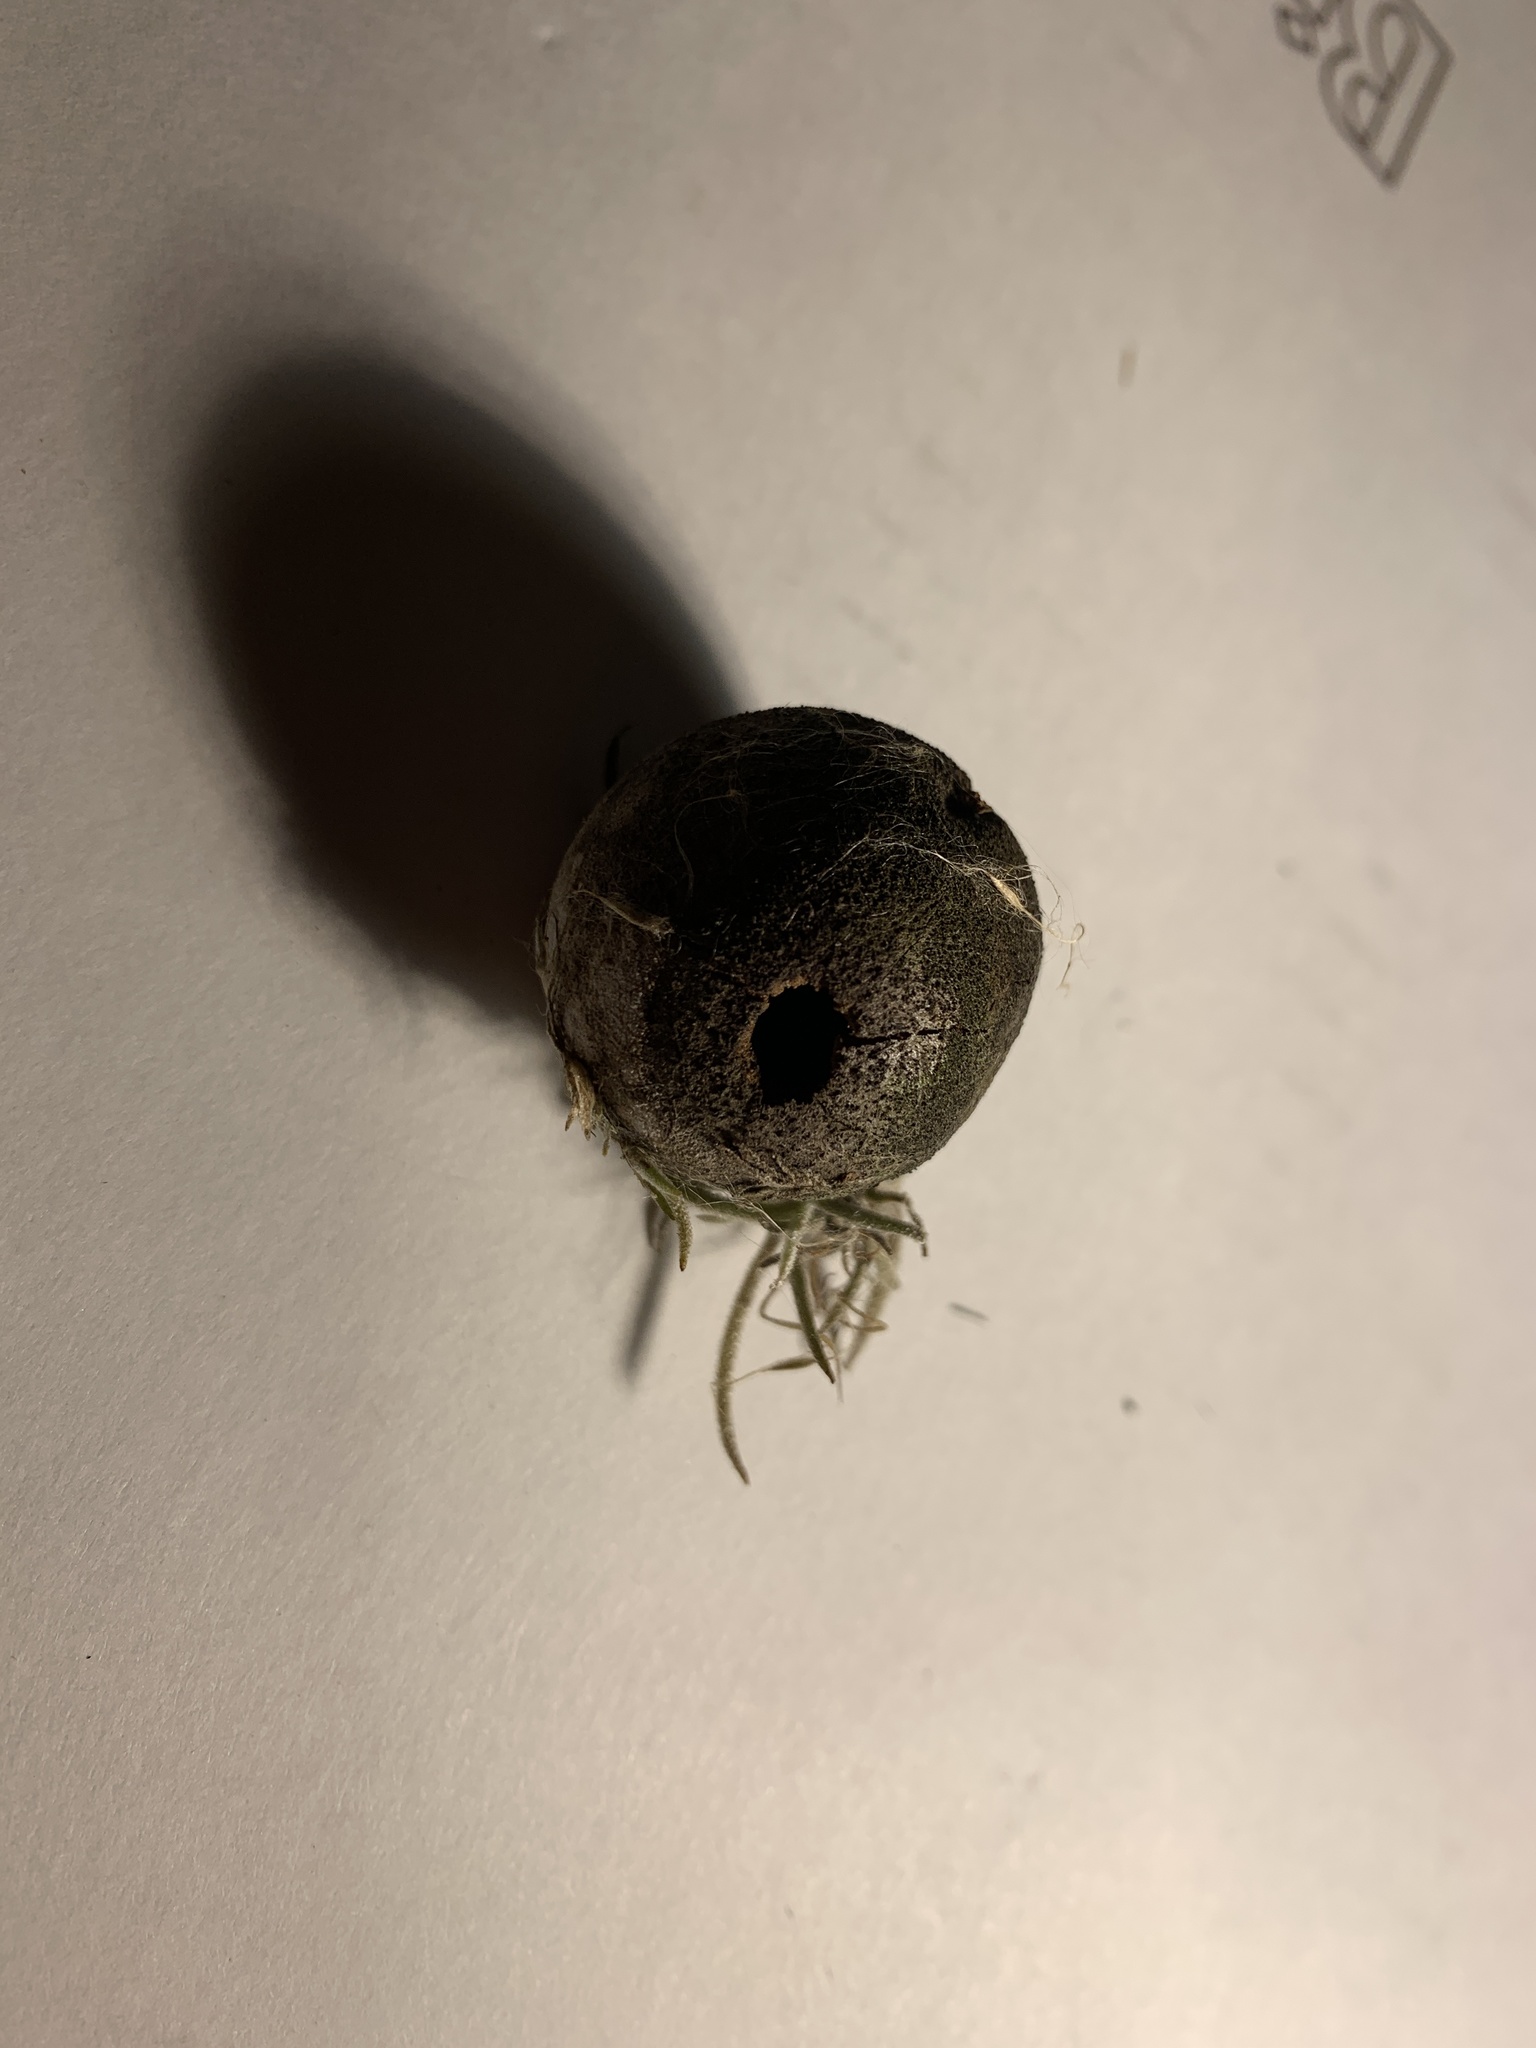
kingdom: Animalia
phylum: Arthropoda
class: Insecta
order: Hymenoptera
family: Cynipidae
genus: Disholcaspis
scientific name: Disholcaspis
